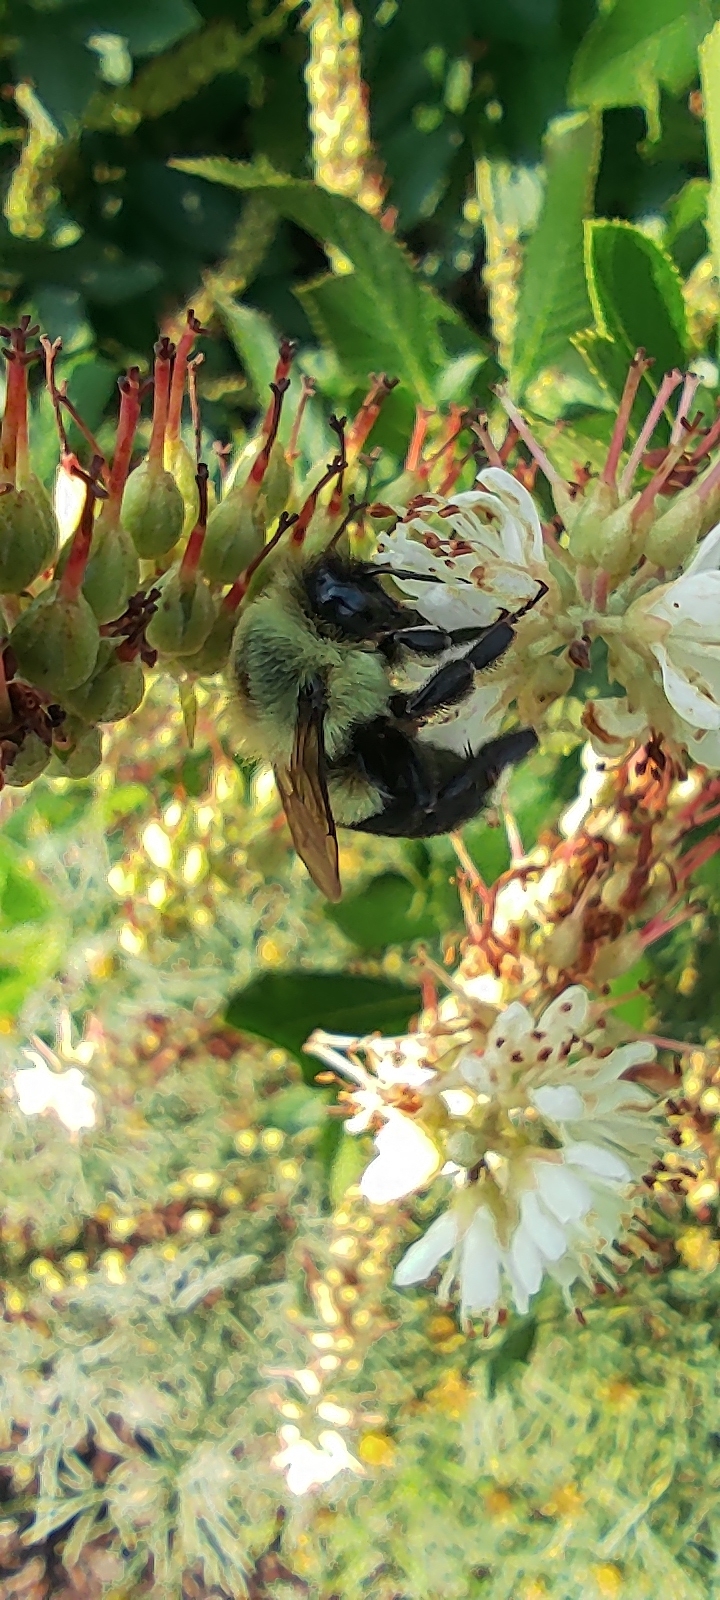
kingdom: Animalia
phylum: Arthropoda
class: Insecta
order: Hymenoptera
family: Apidae
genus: Bombus
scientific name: Bombus impatiens
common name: Common eastern bumble bee
